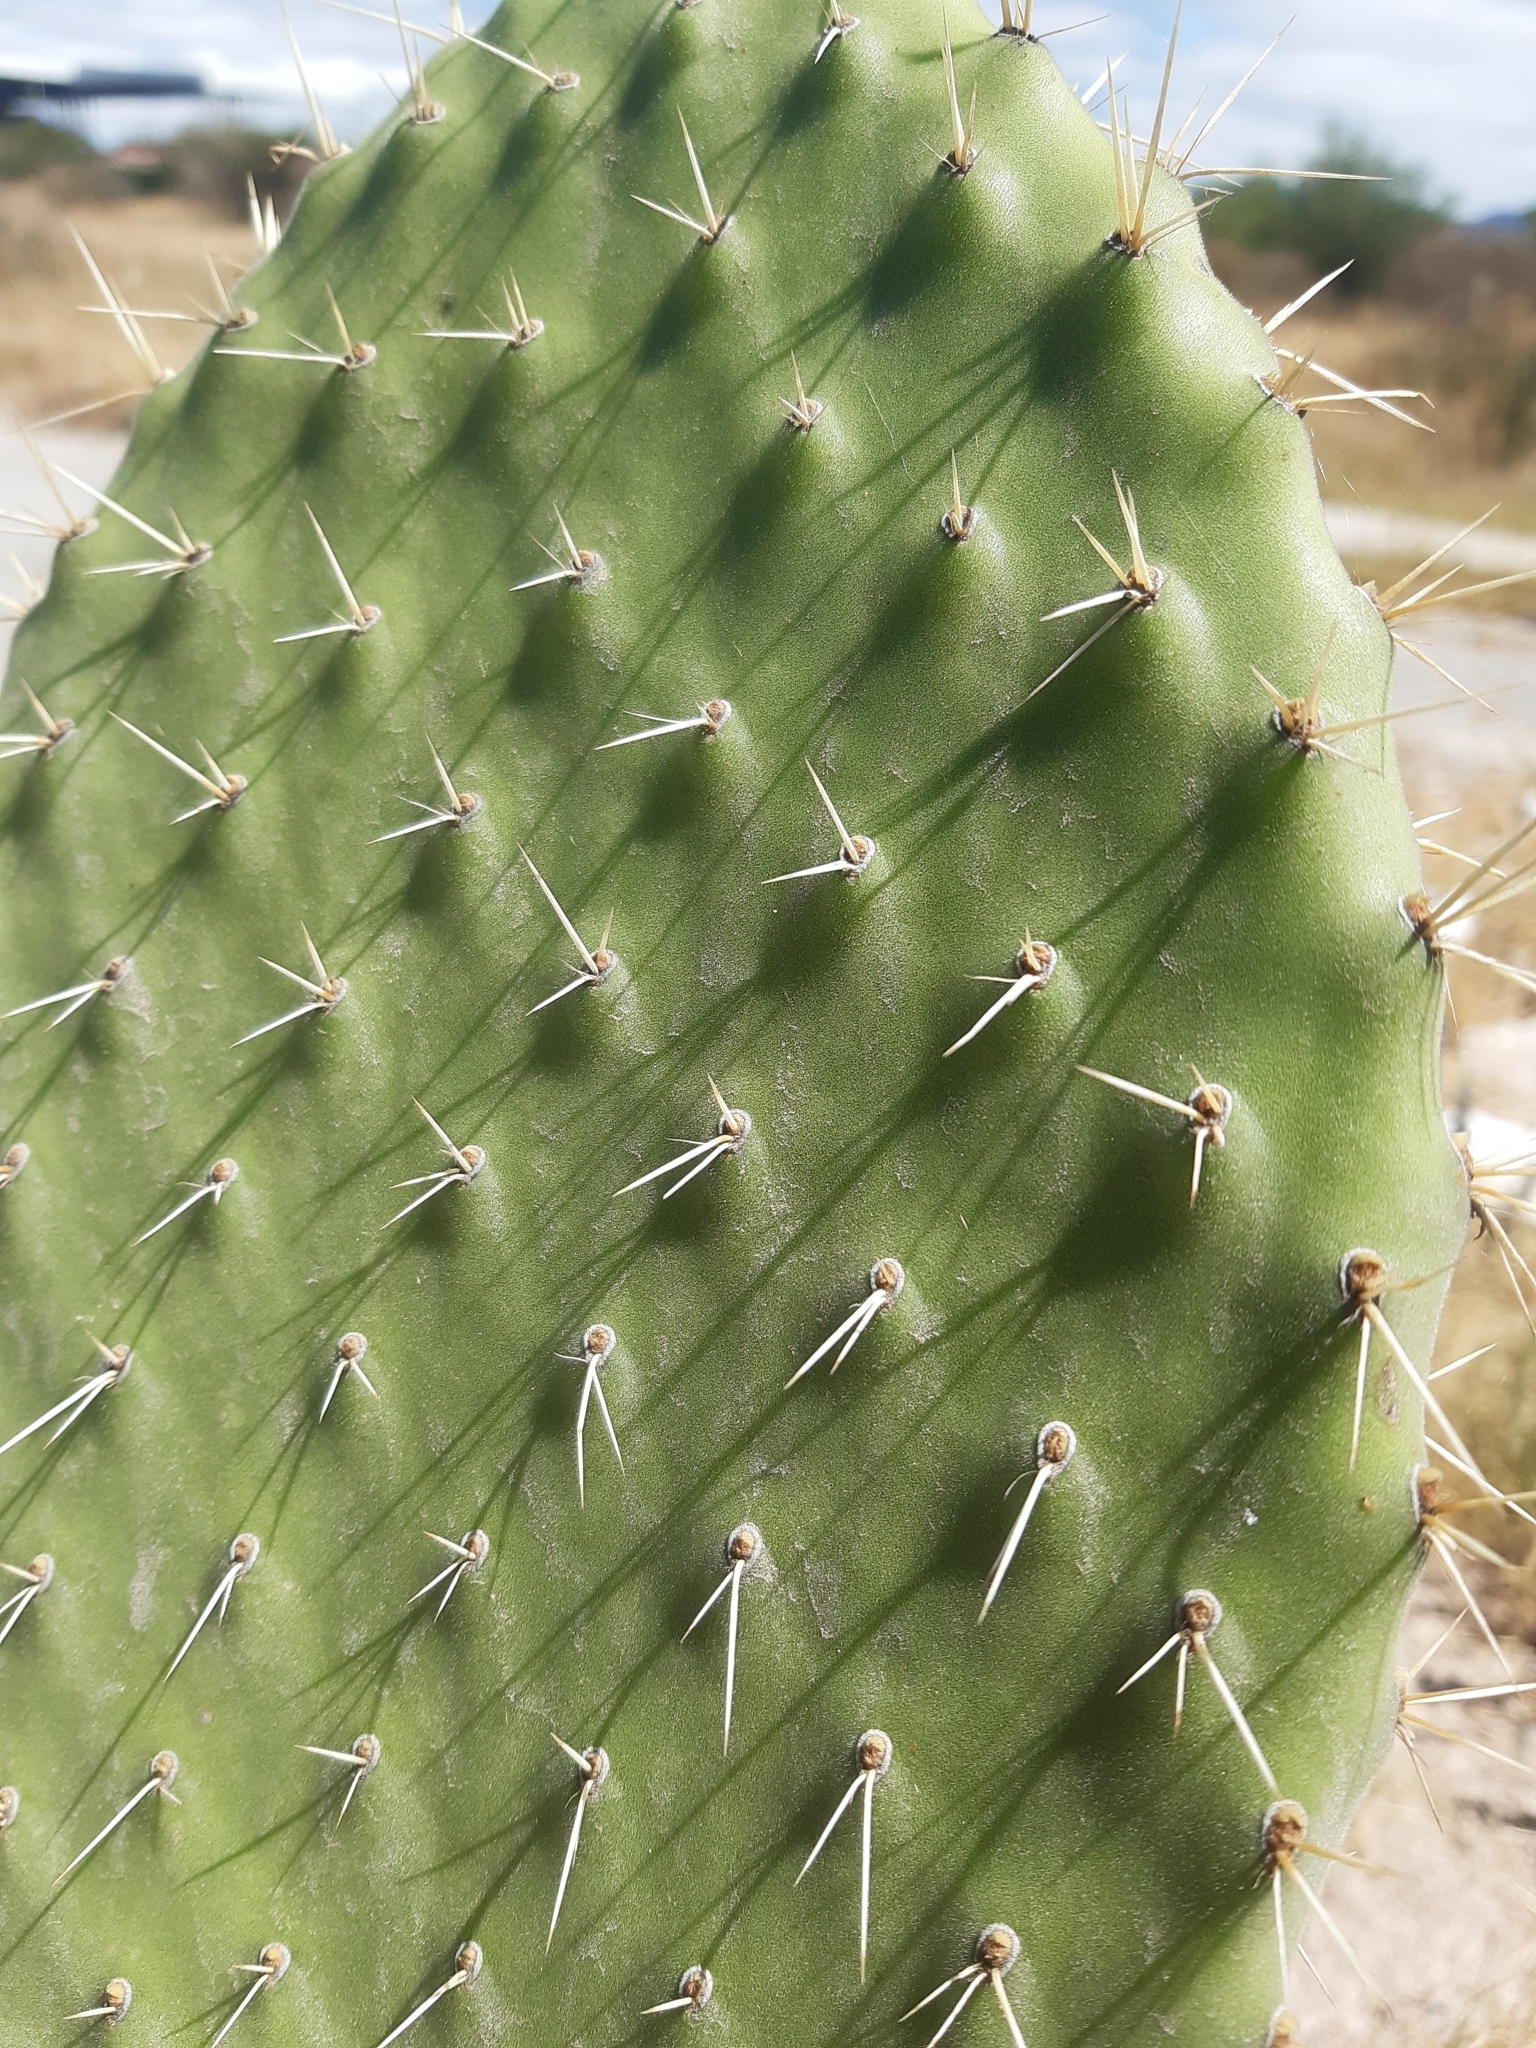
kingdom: Plantae
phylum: Tracheophyta
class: Magnoliopsida
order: Caryophyllales
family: Cactaceae
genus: Opuntia
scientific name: Opuntia lasiacantha
